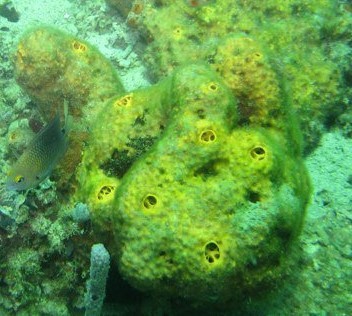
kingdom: Animalia
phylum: Porifera
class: Demospongiae
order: Verongiida
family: Aplysinidae
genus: Aiolochroia
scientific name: Aiolochroia crassa
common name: Branching tube sponge
